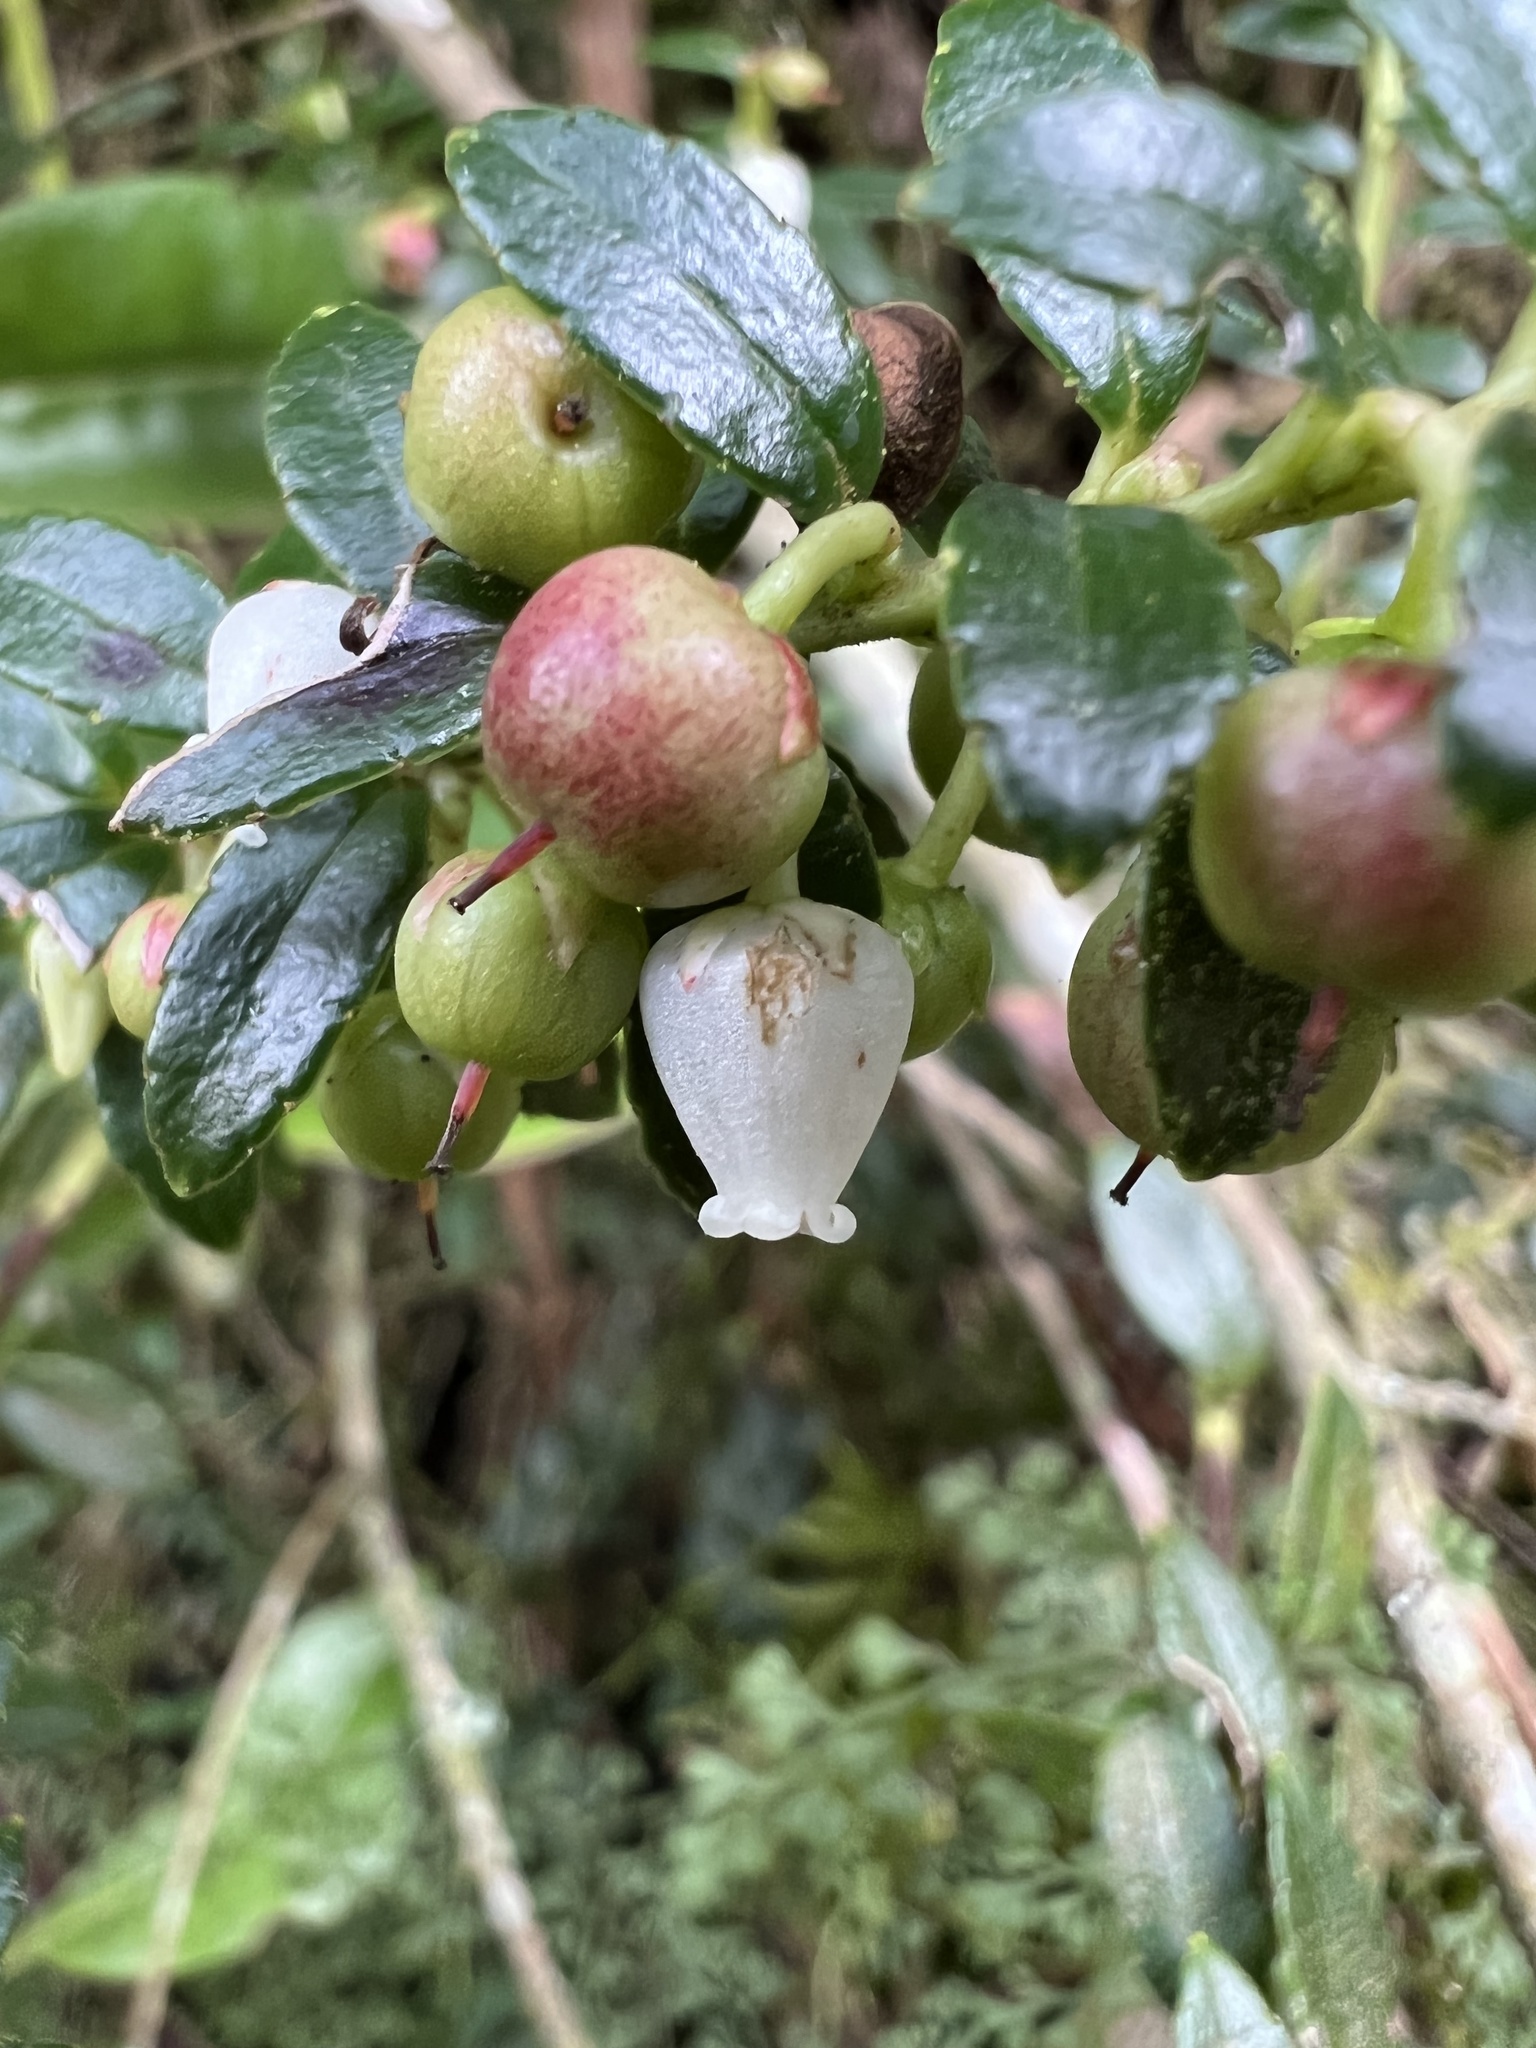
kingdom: Plantae
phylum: Tracheophyta
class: Magnoliopsida
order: Ericales
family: Ericaceae
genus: Gaultheria
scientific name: Gaultheria myrsinoides
